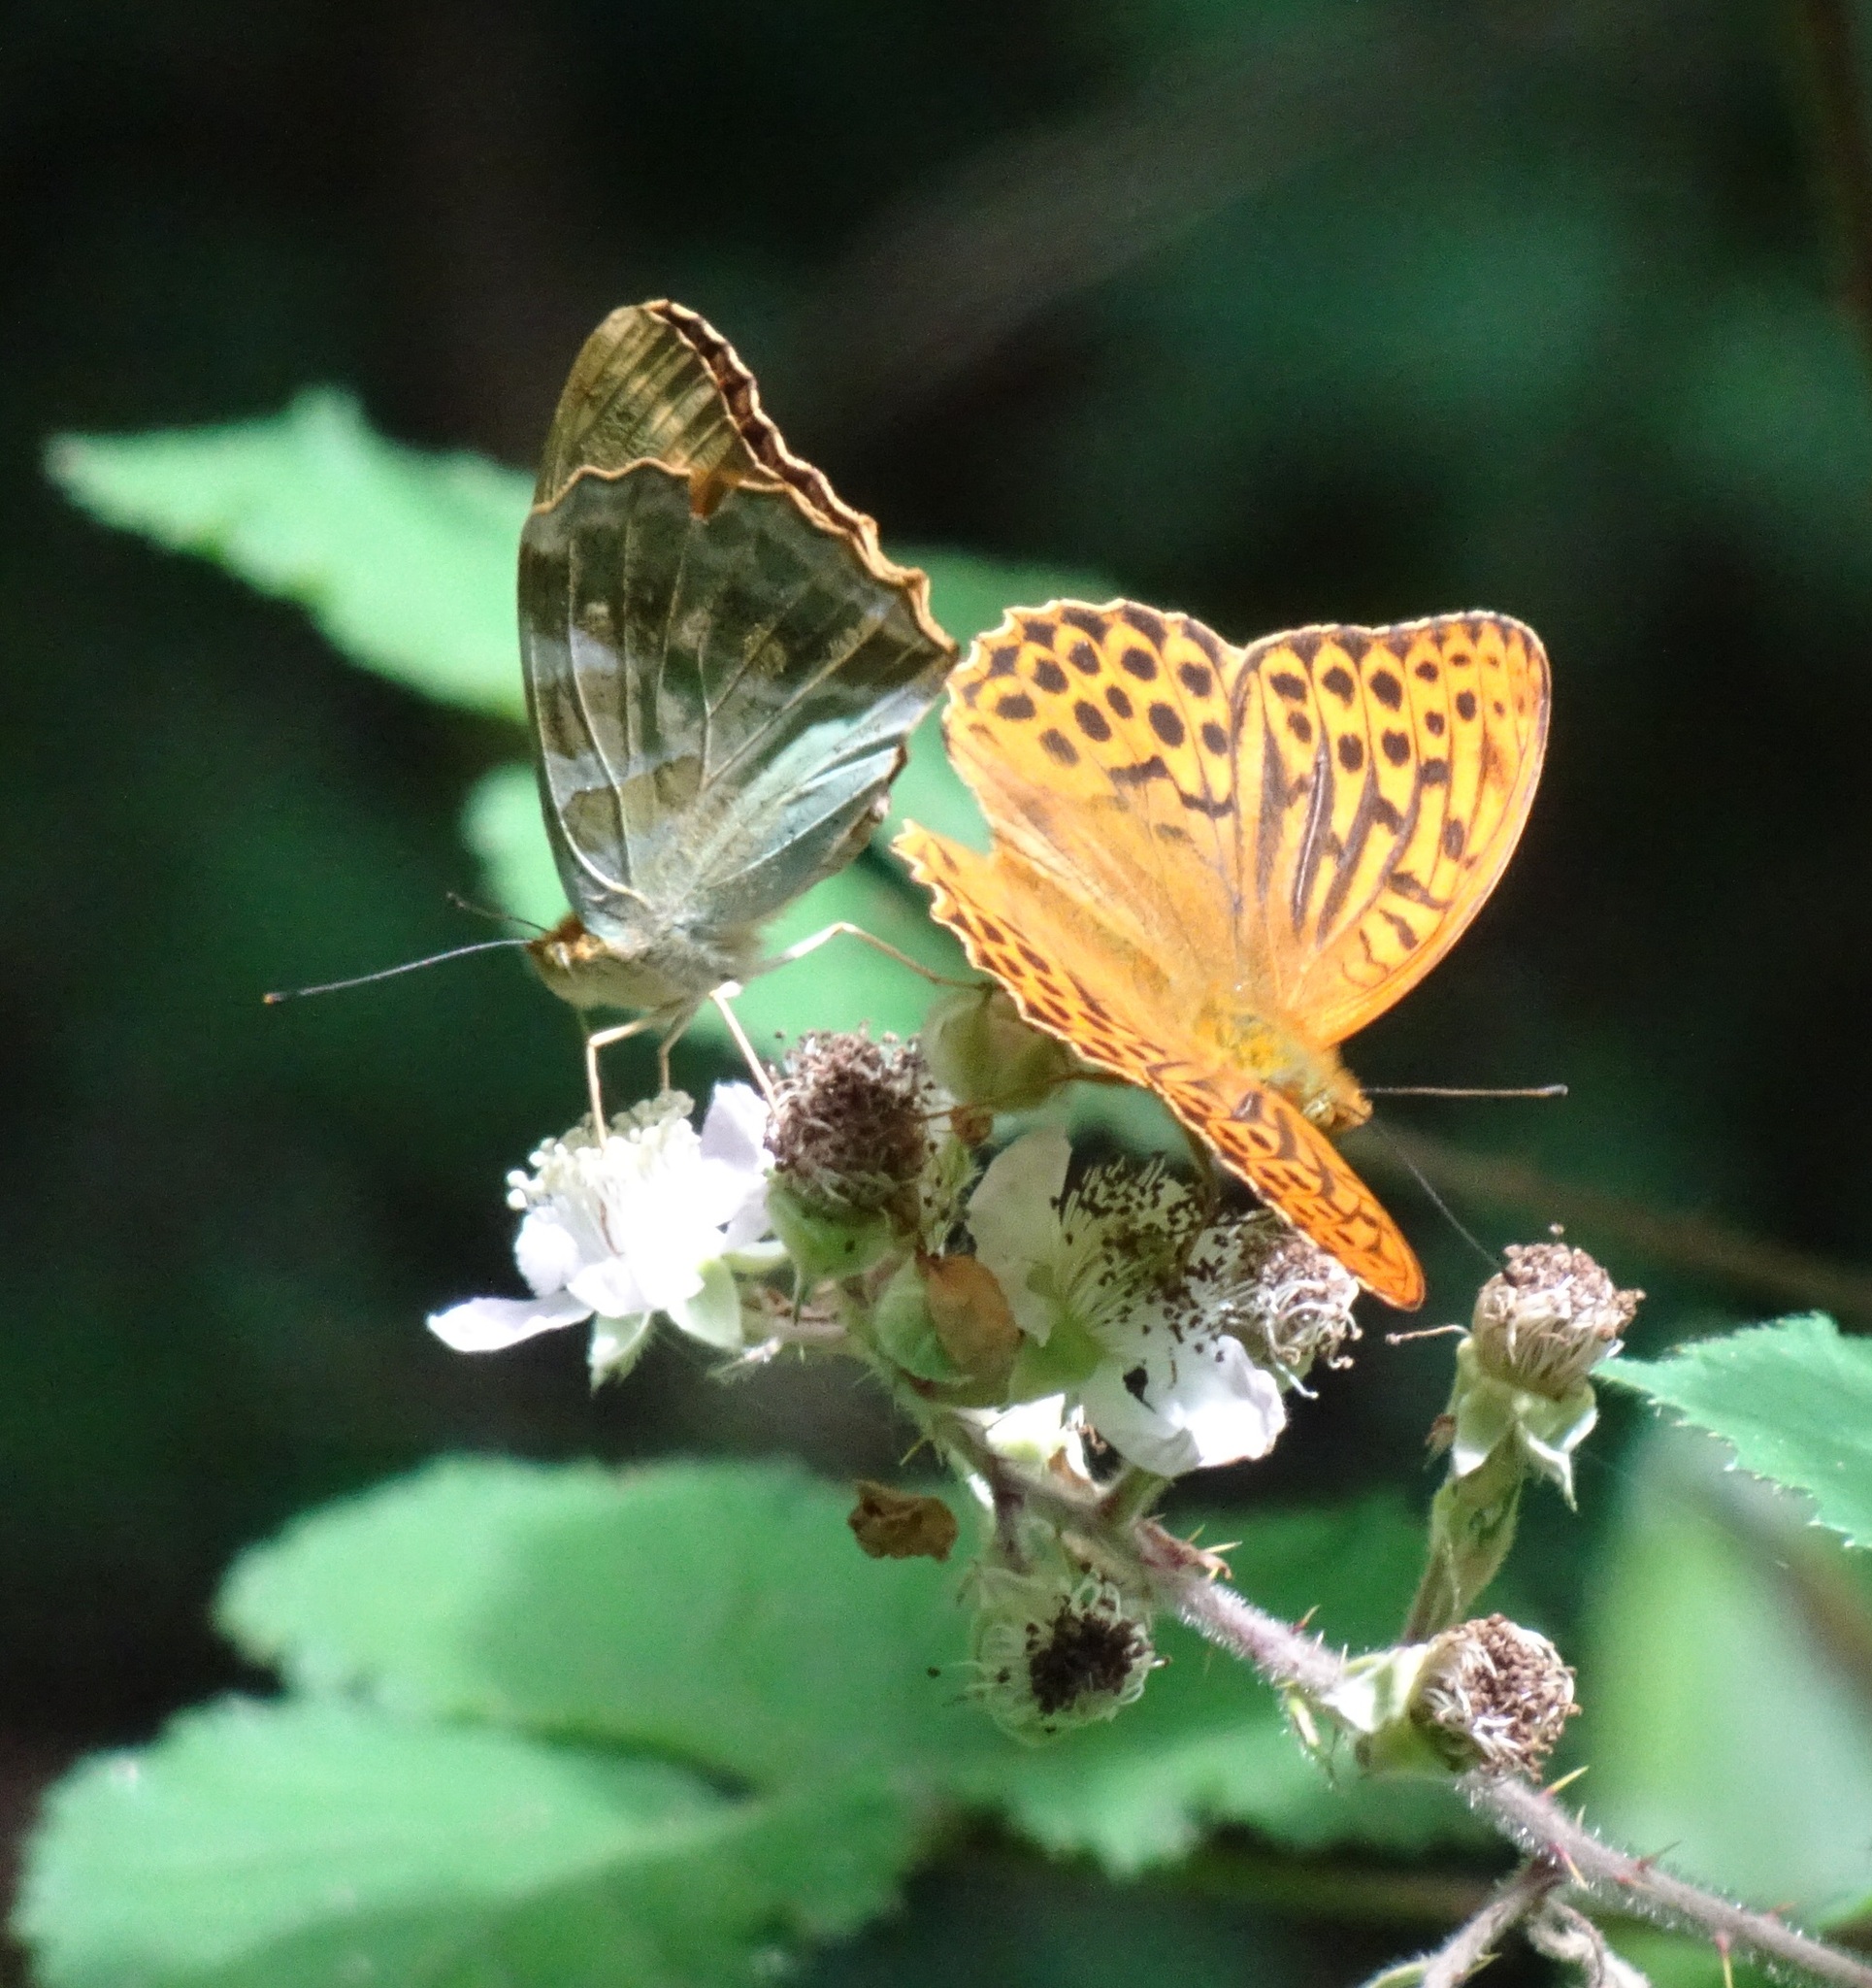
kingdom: Animalia
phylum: Arthropoda
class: Insecta
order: Lepidoptera
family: Nymphalidae
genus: Argynnis
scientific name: Argynnis paphia
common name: Silver-washed fritillary
